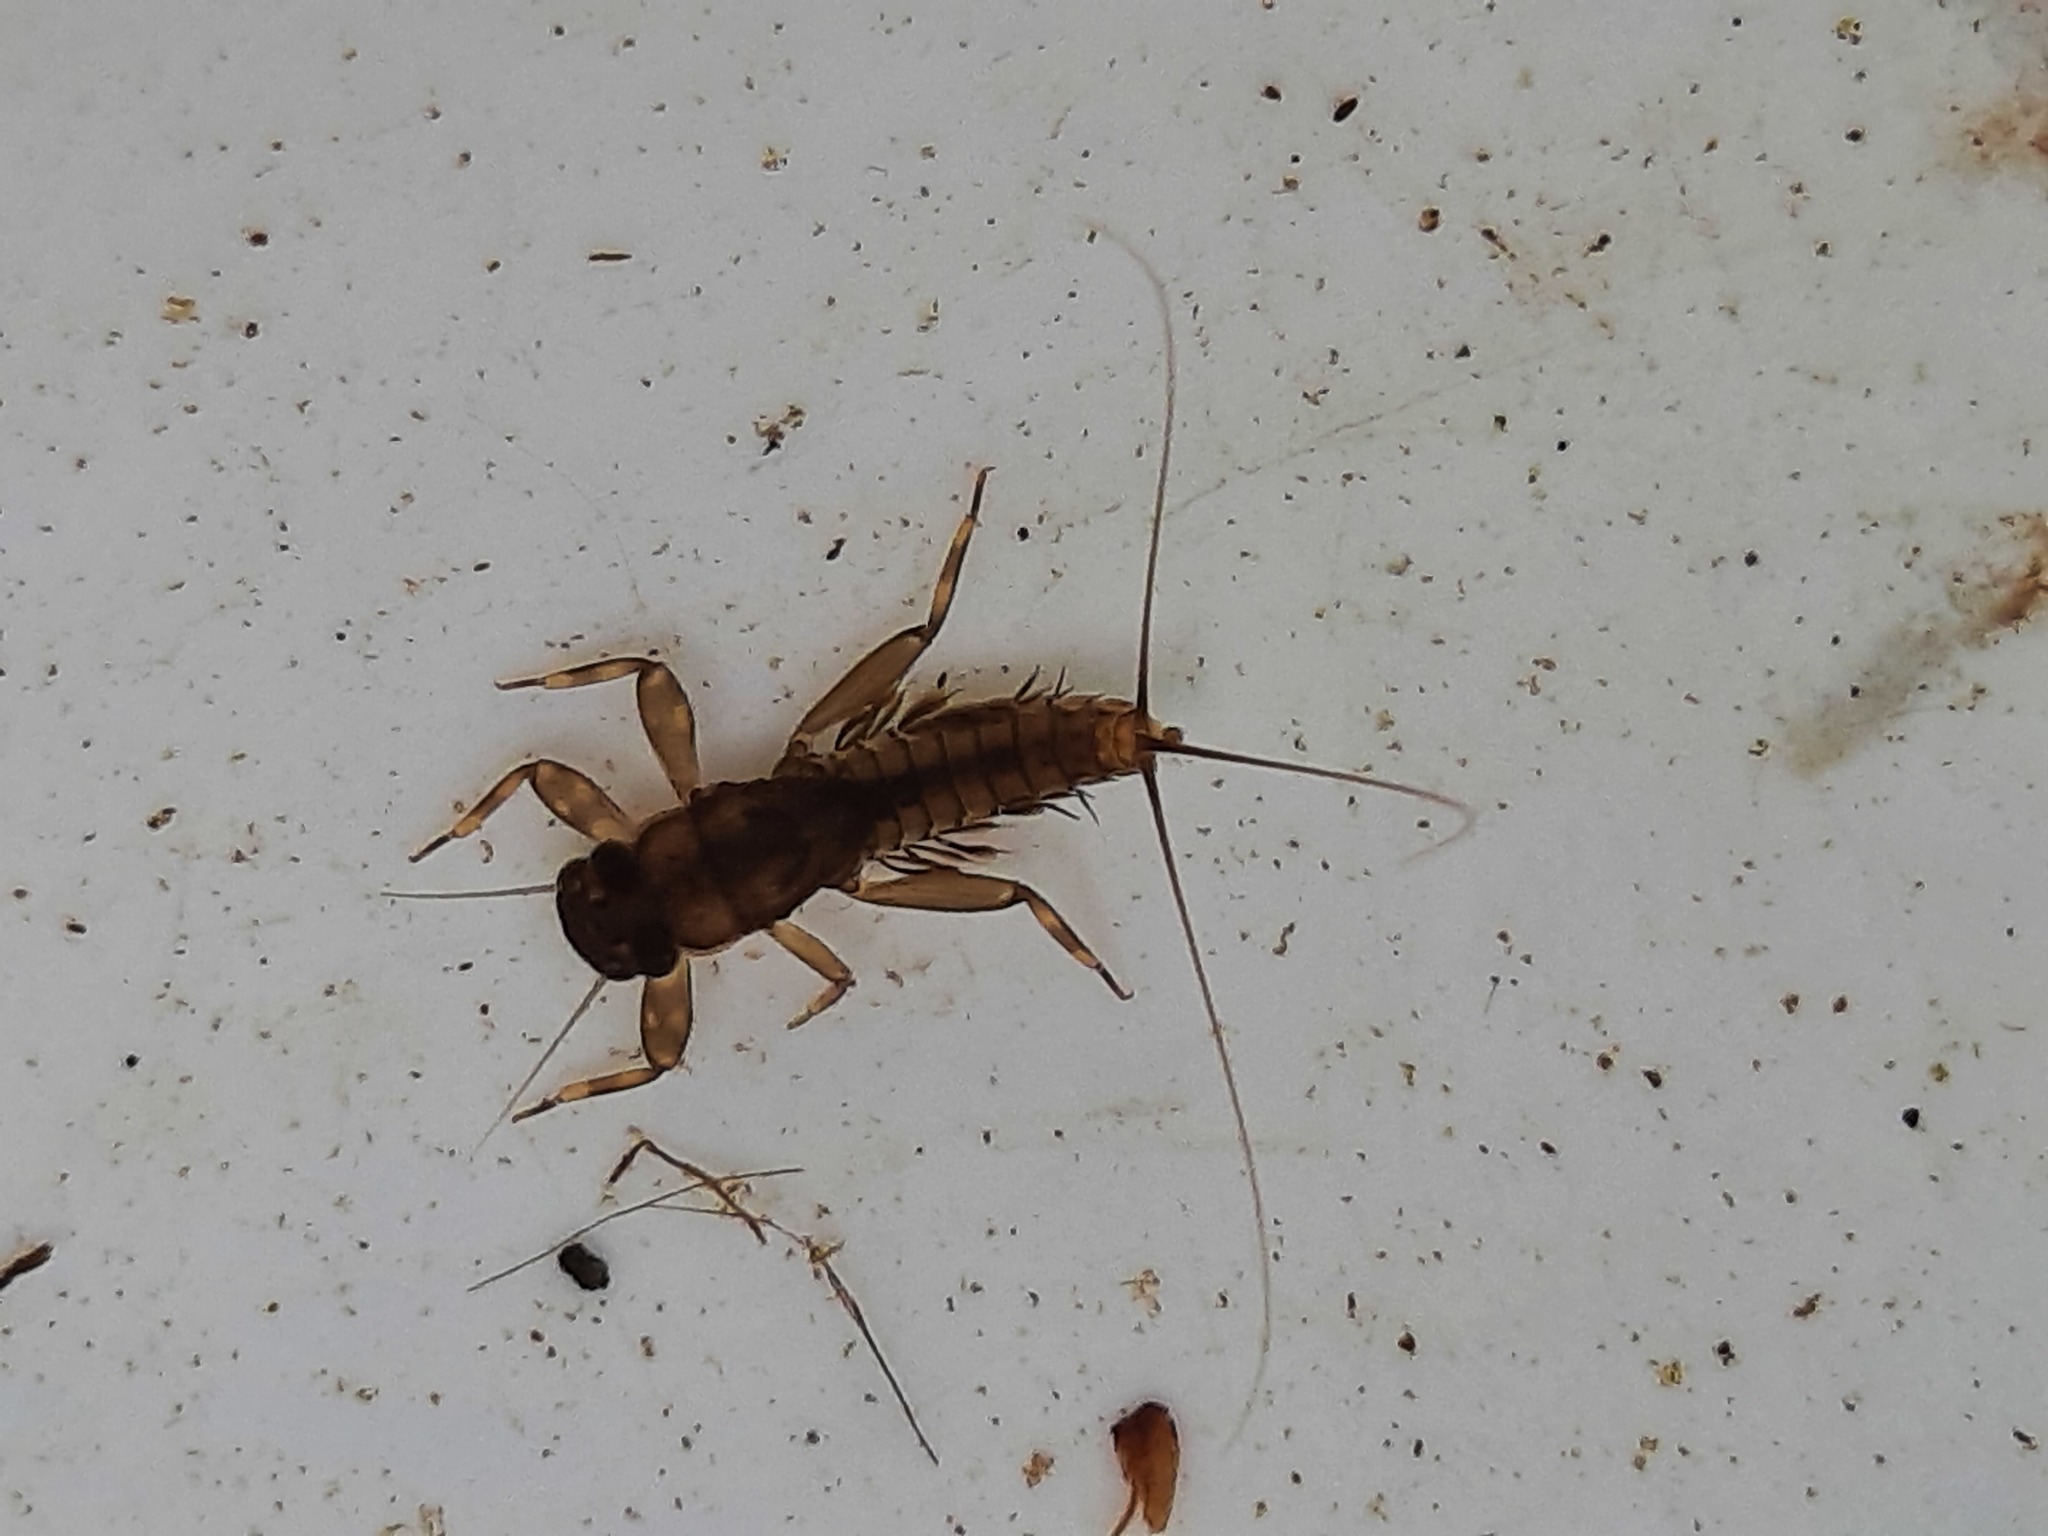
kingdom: Animalia
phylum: Arthropoda
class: Insecta
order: Ephemeroptera
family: Leptophlebiidae
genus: Austroclima
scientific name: Austroclima sepia
